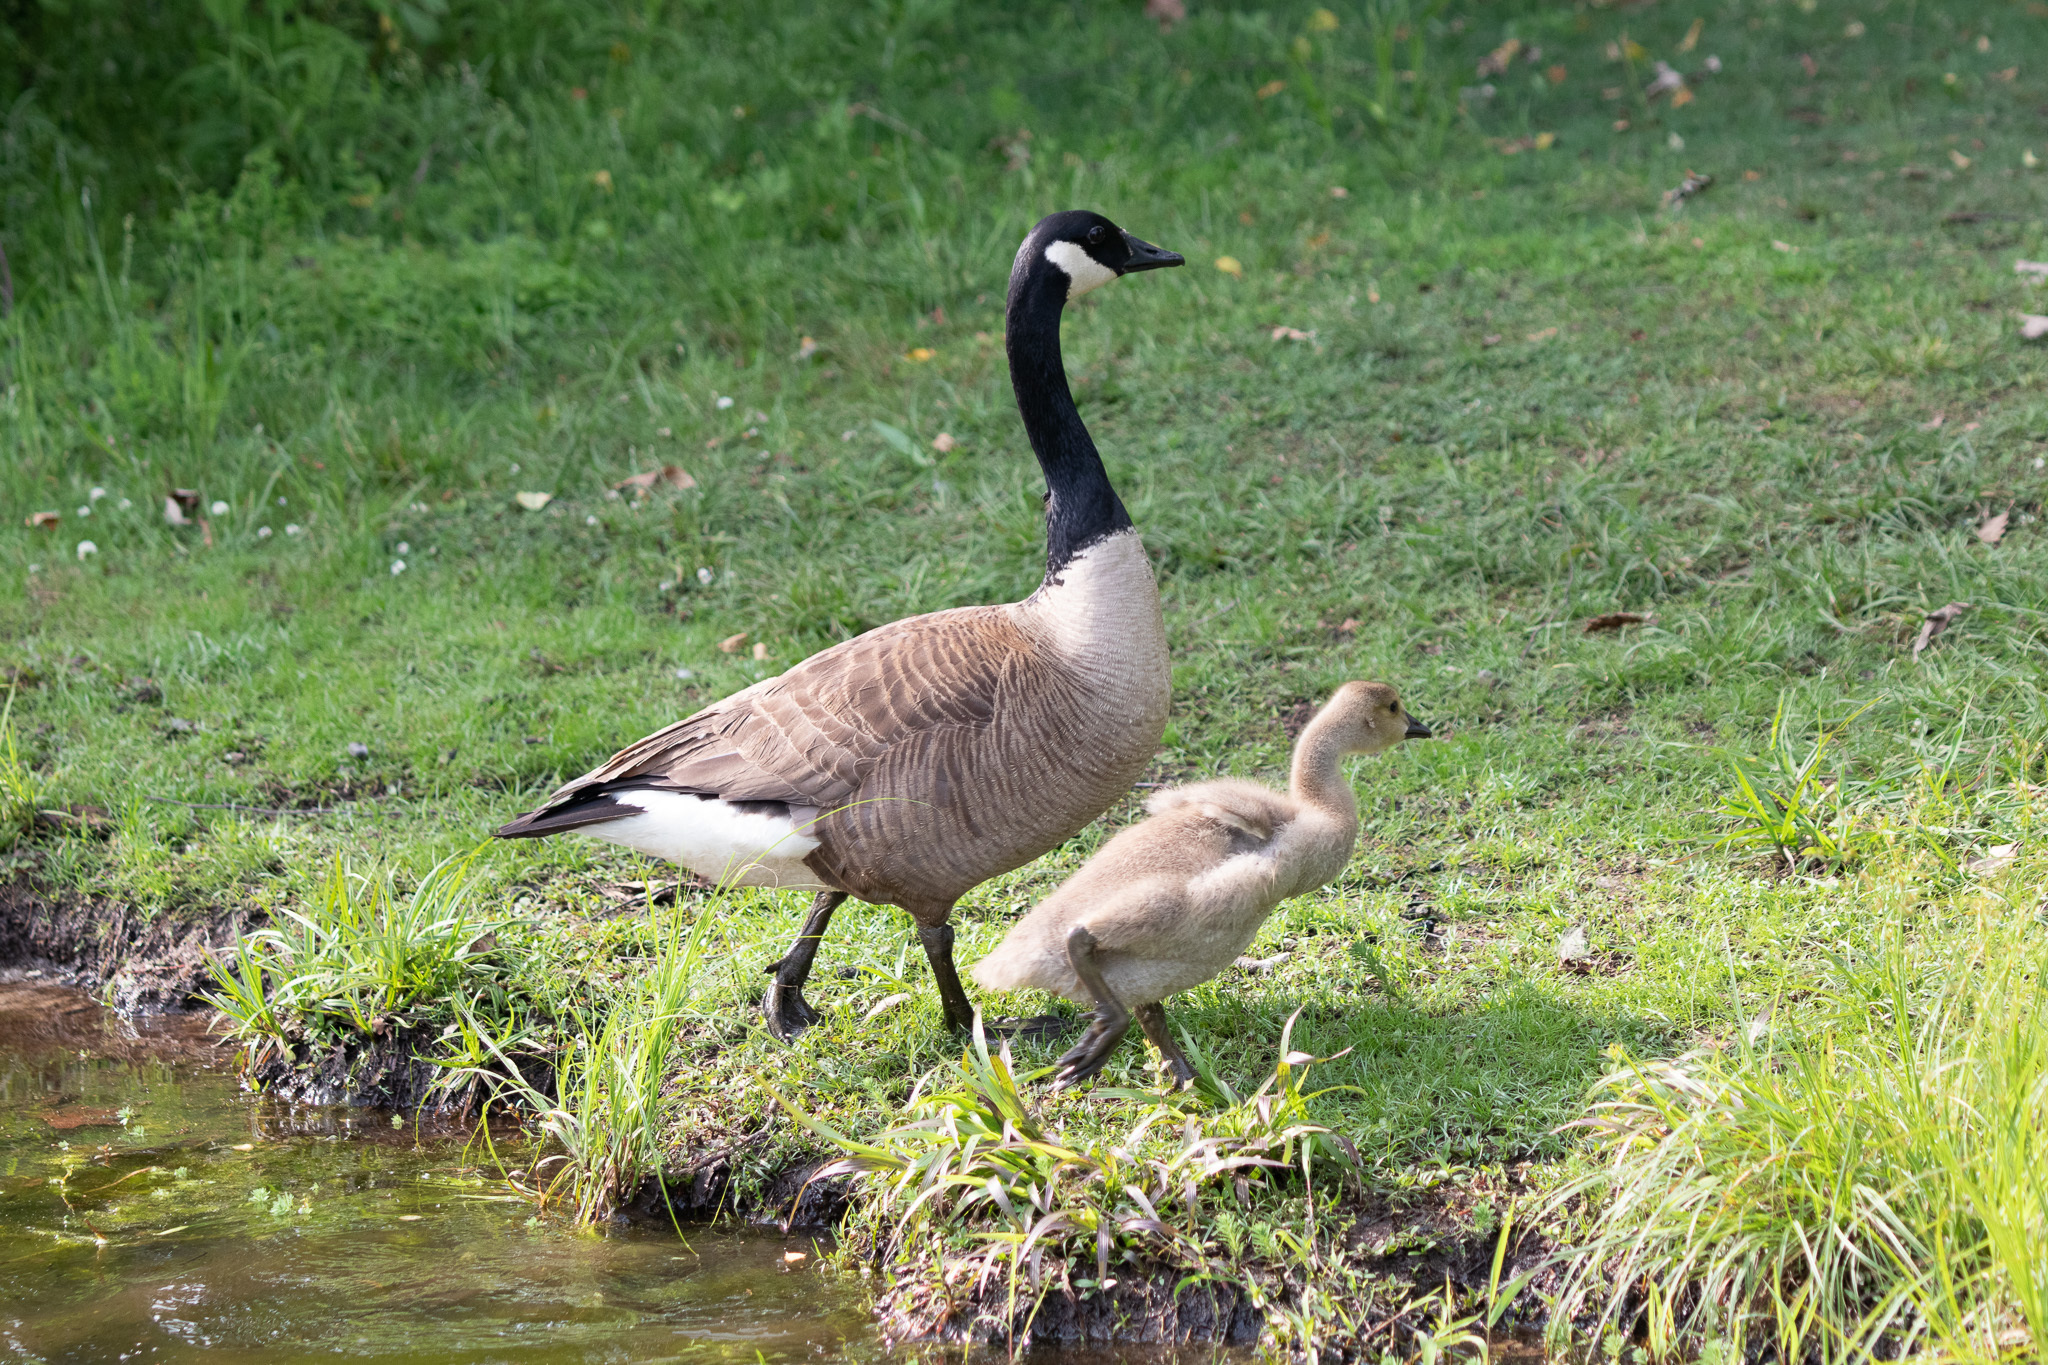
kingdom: Animalia
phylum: Chordata
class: Aves
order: Anseriformes
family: Anatidae
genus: Branta
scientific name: Branta canadensis
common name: Canada goose
